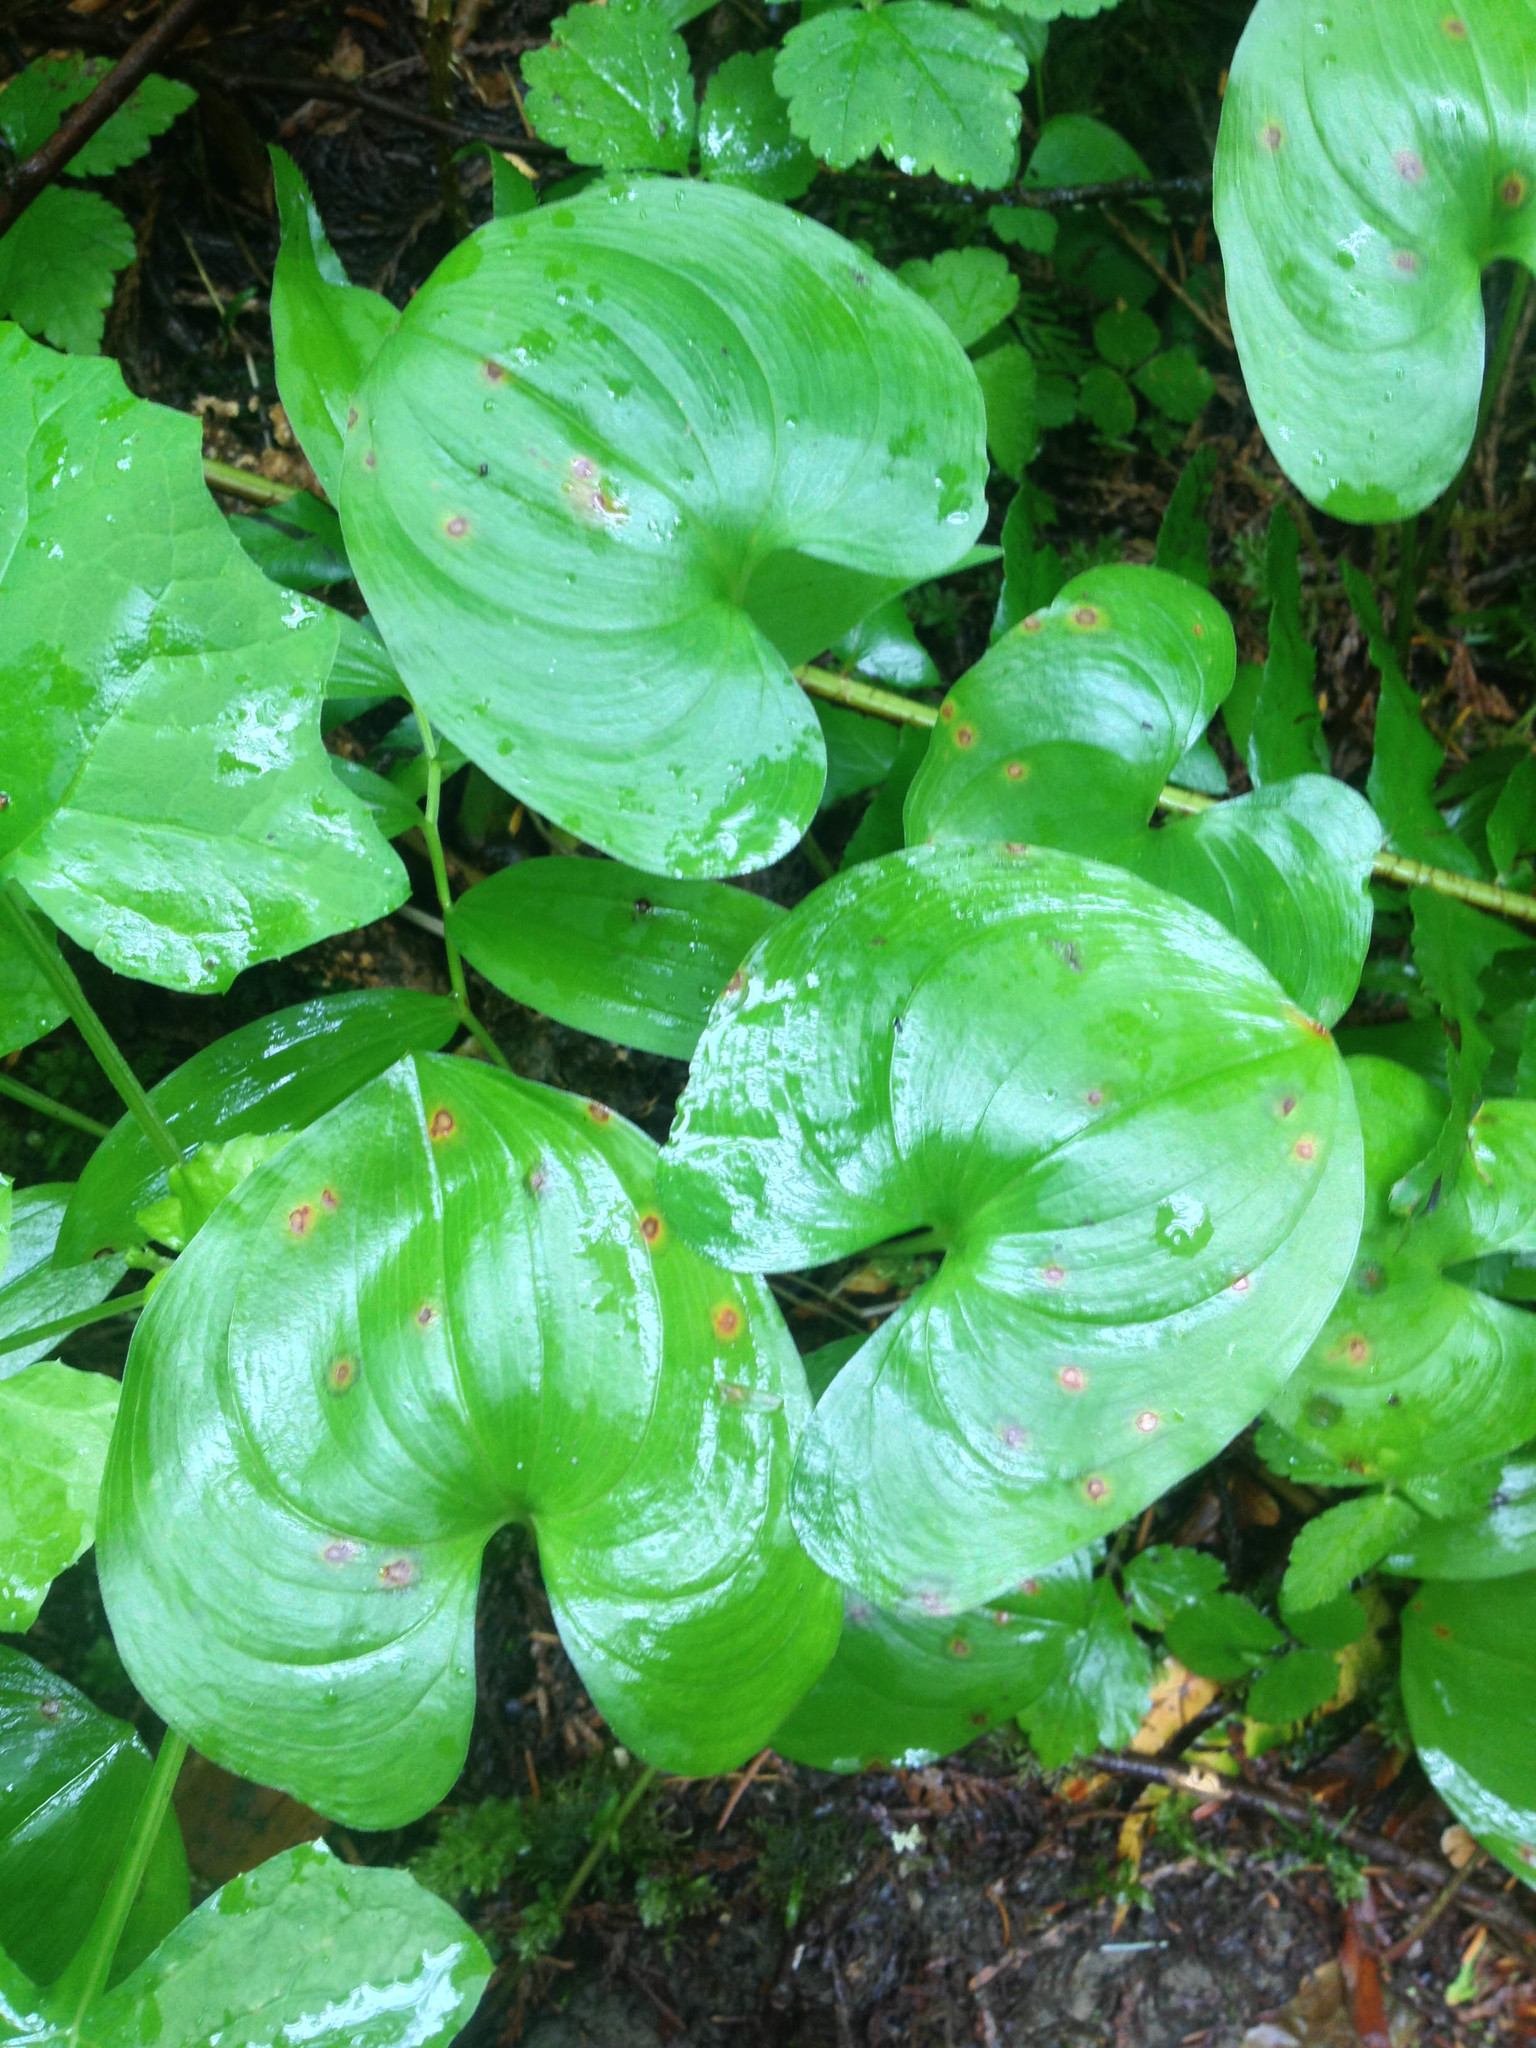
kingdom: Plantae
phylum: Tracheophyta
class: Liliopsida
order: Asparagales
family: Asparagaceae
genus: Maianthemum
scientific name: Maianthemum dilatatum
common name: False lily-of-the-valley
